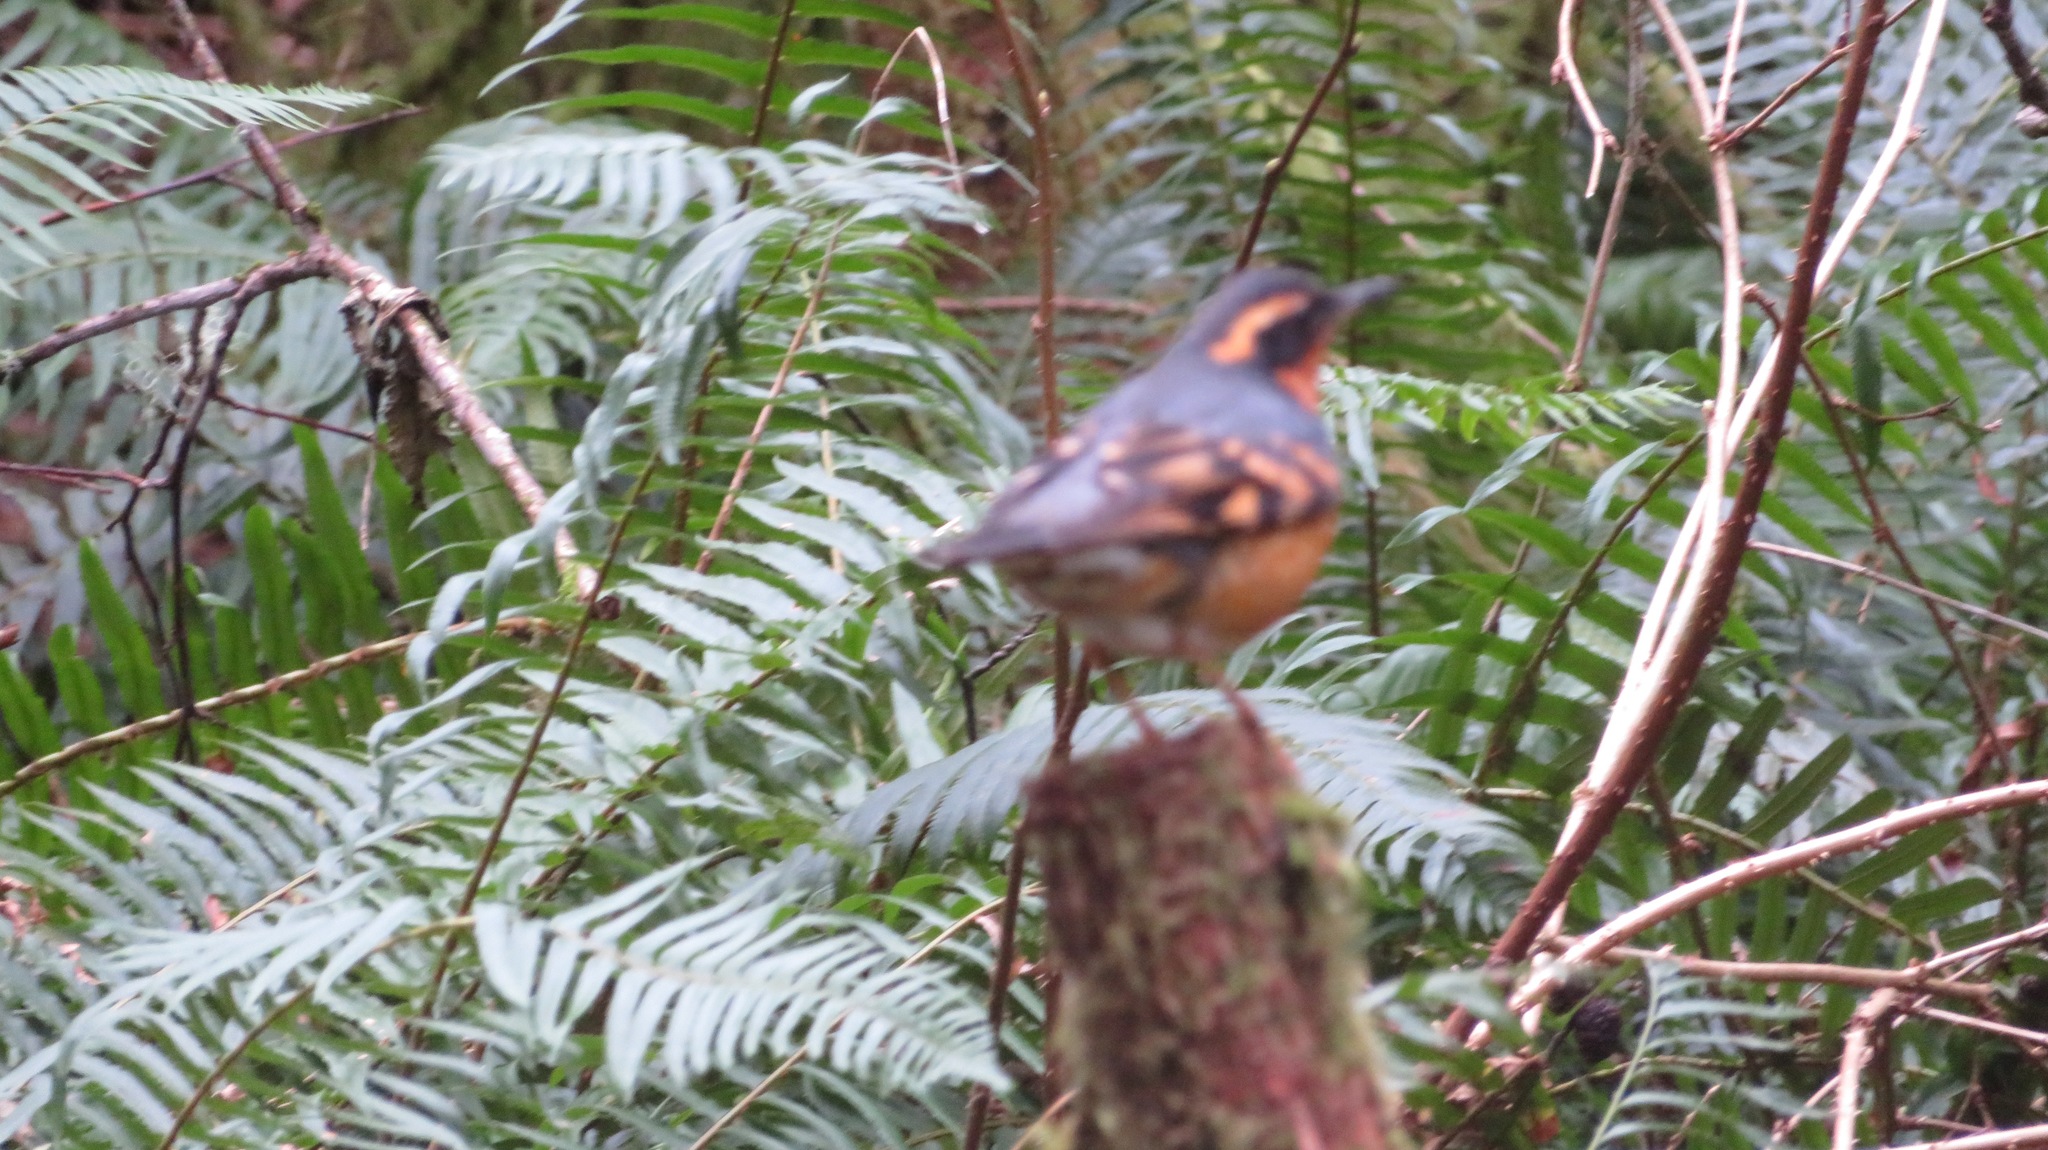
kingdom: Animalia
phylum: Chordata
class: Aves
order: Passeriformes
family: Turdidae
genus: Ixoreus
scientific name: Ixoreus naevius
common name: Varied thrush
